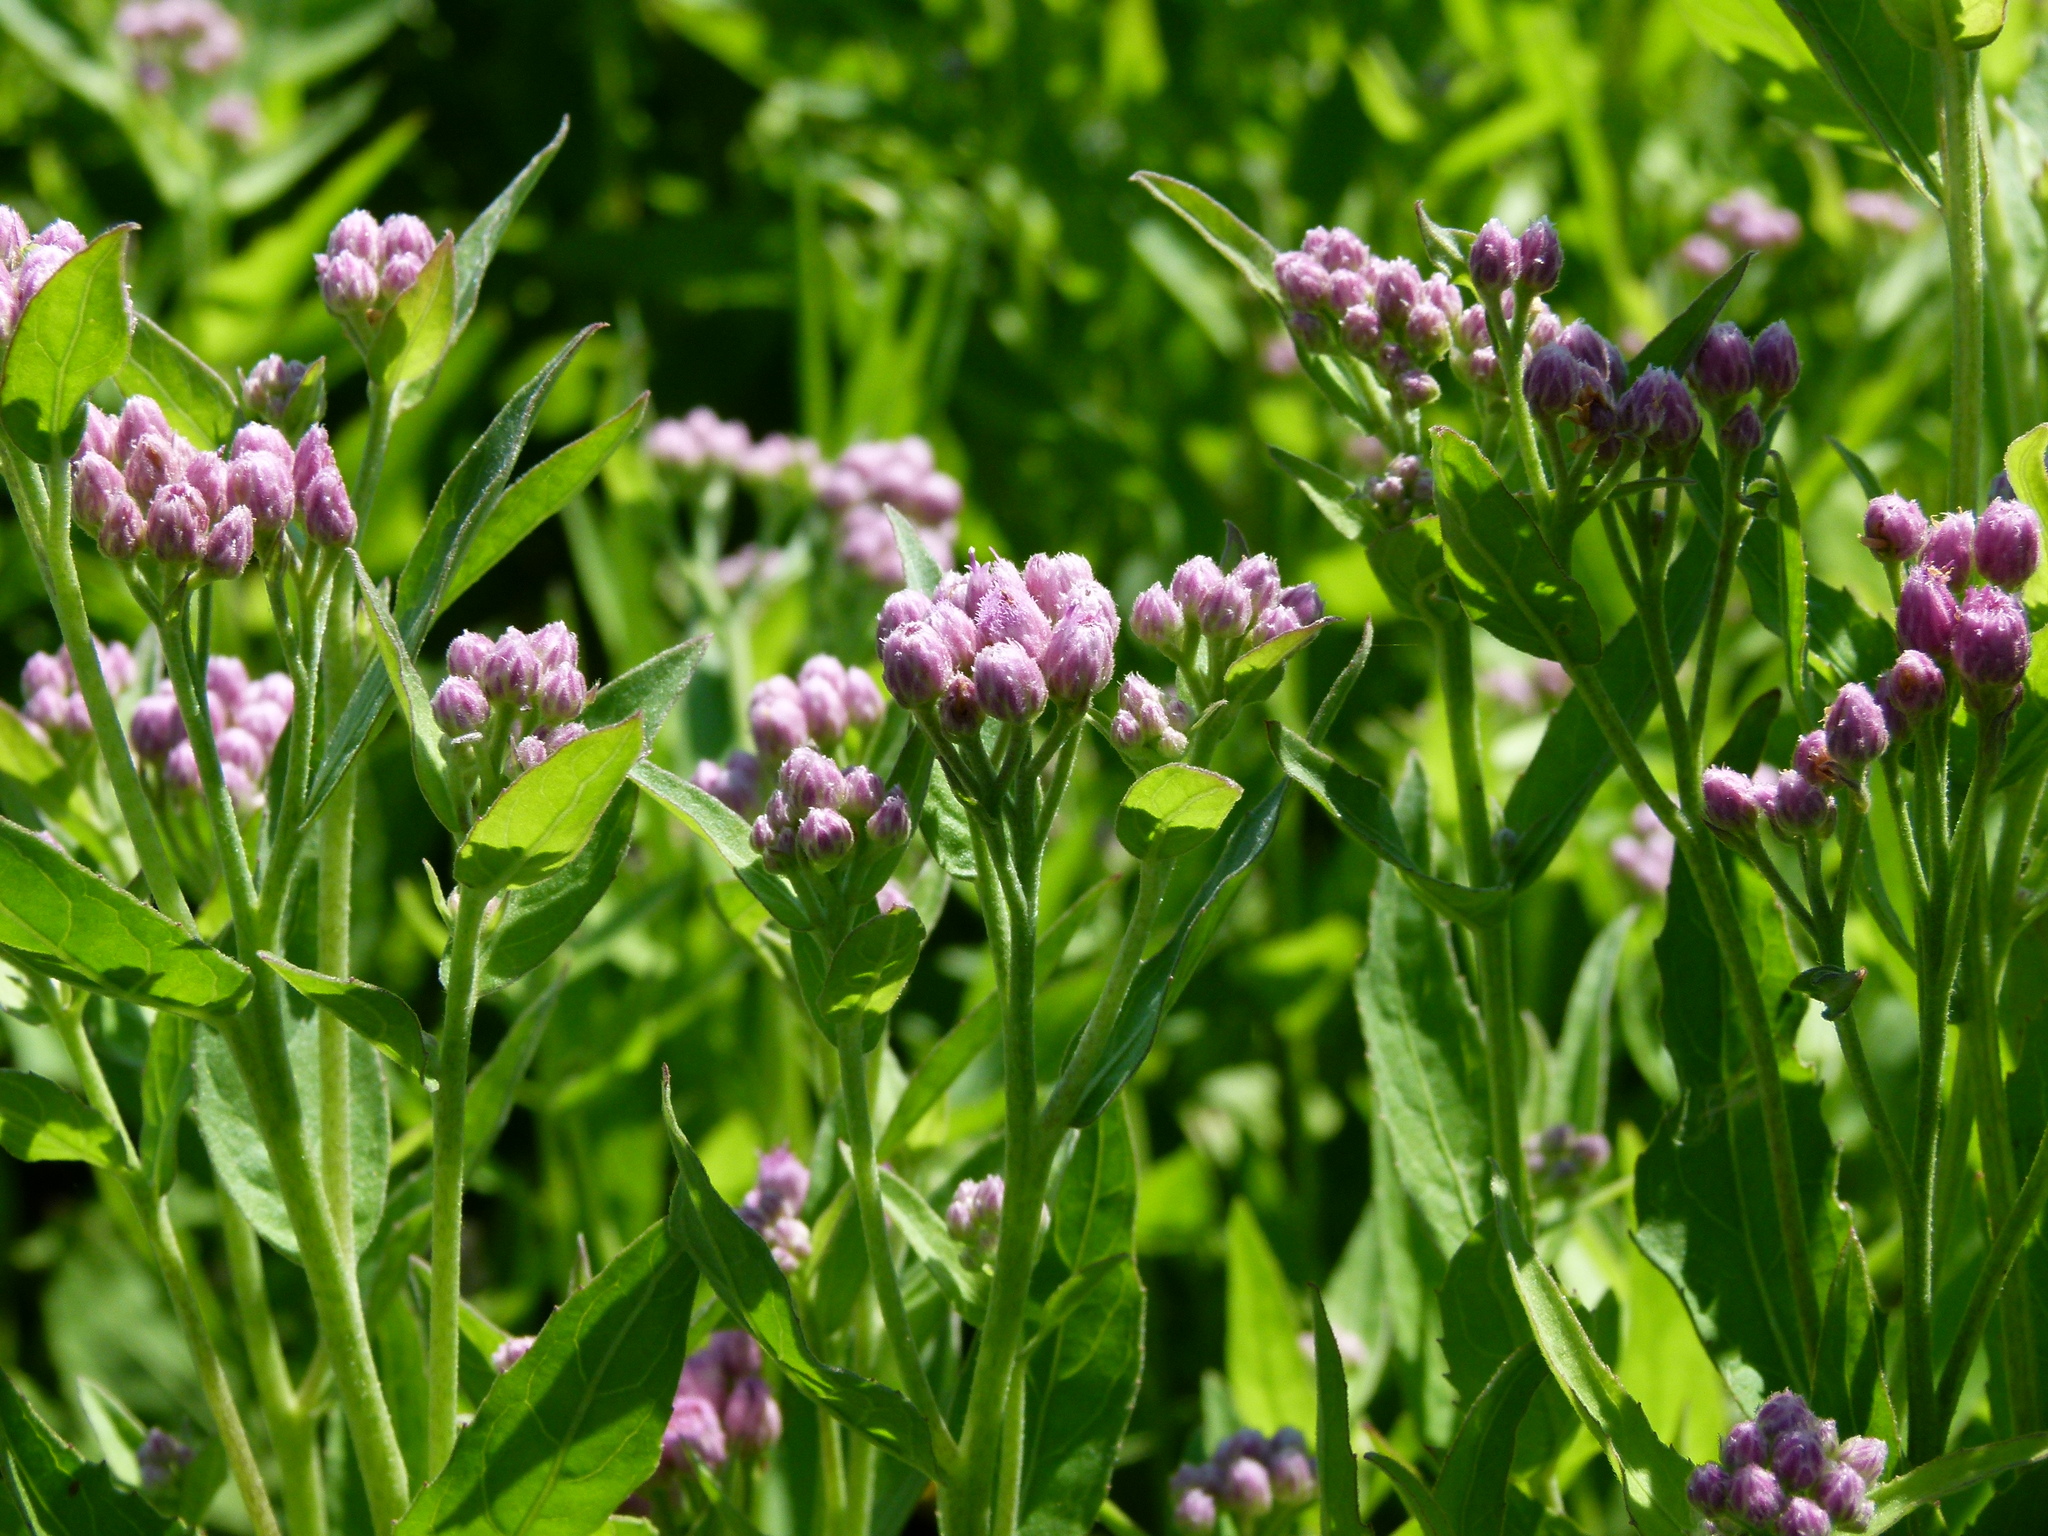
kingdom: Plantae
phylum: Tracheophyta
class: Magnoliopsida
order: Asterales
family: Asteraceae
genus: Pluchea
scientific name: Pluchea odorata
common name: Saltmarsh fleabane
